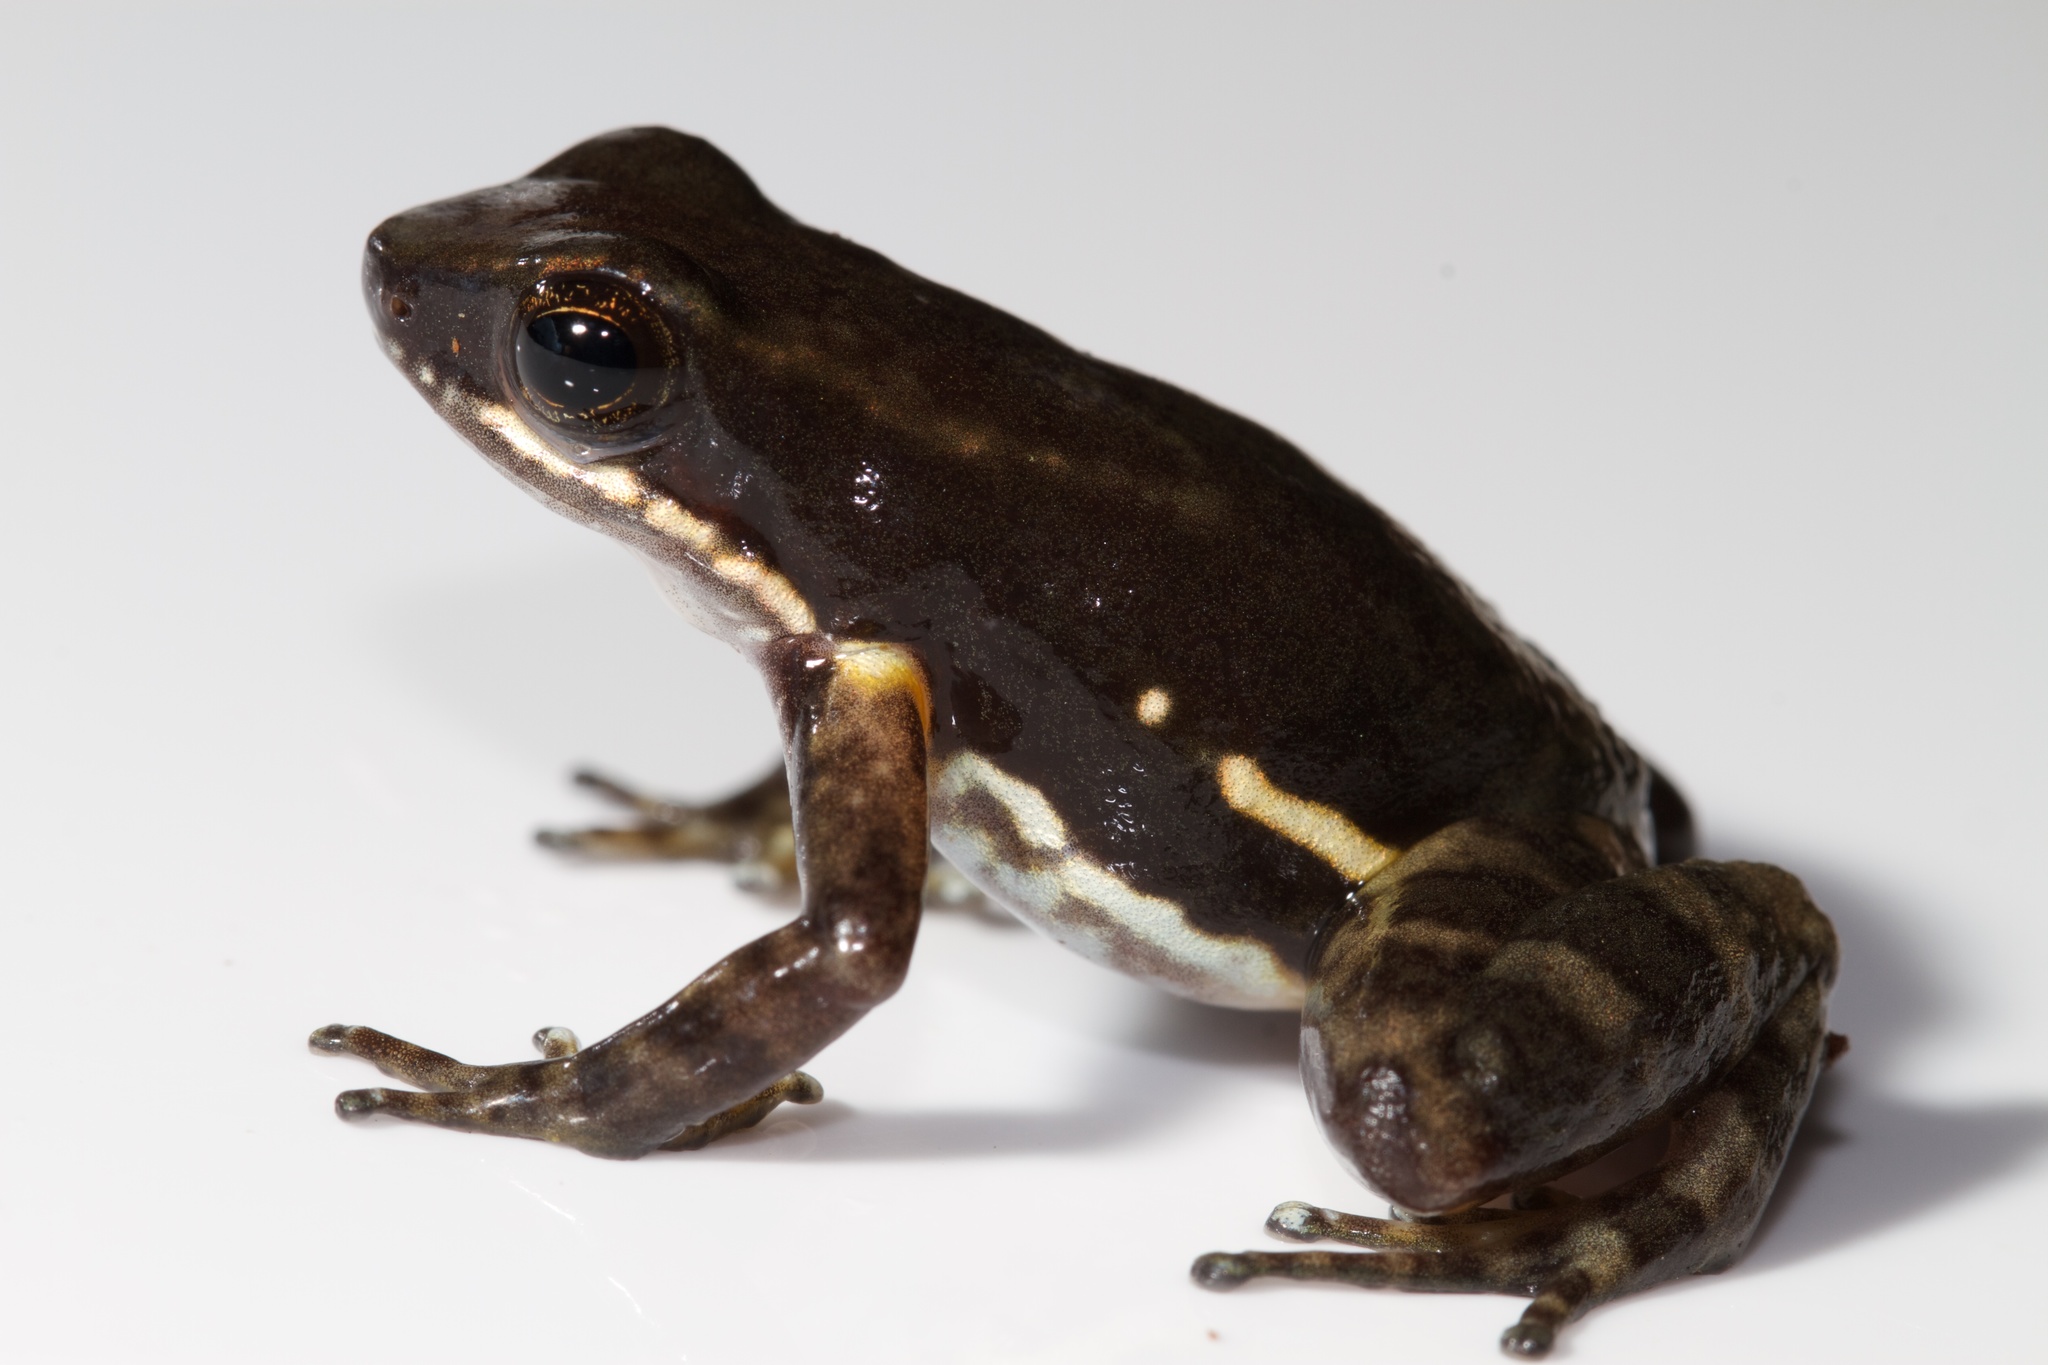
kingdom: Animalia
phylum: Chordata
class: Amphibia
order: Anura
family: Dendrobatidae
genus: Colostethus
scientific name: Colostethus panamansis
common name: Panama rocket frog
